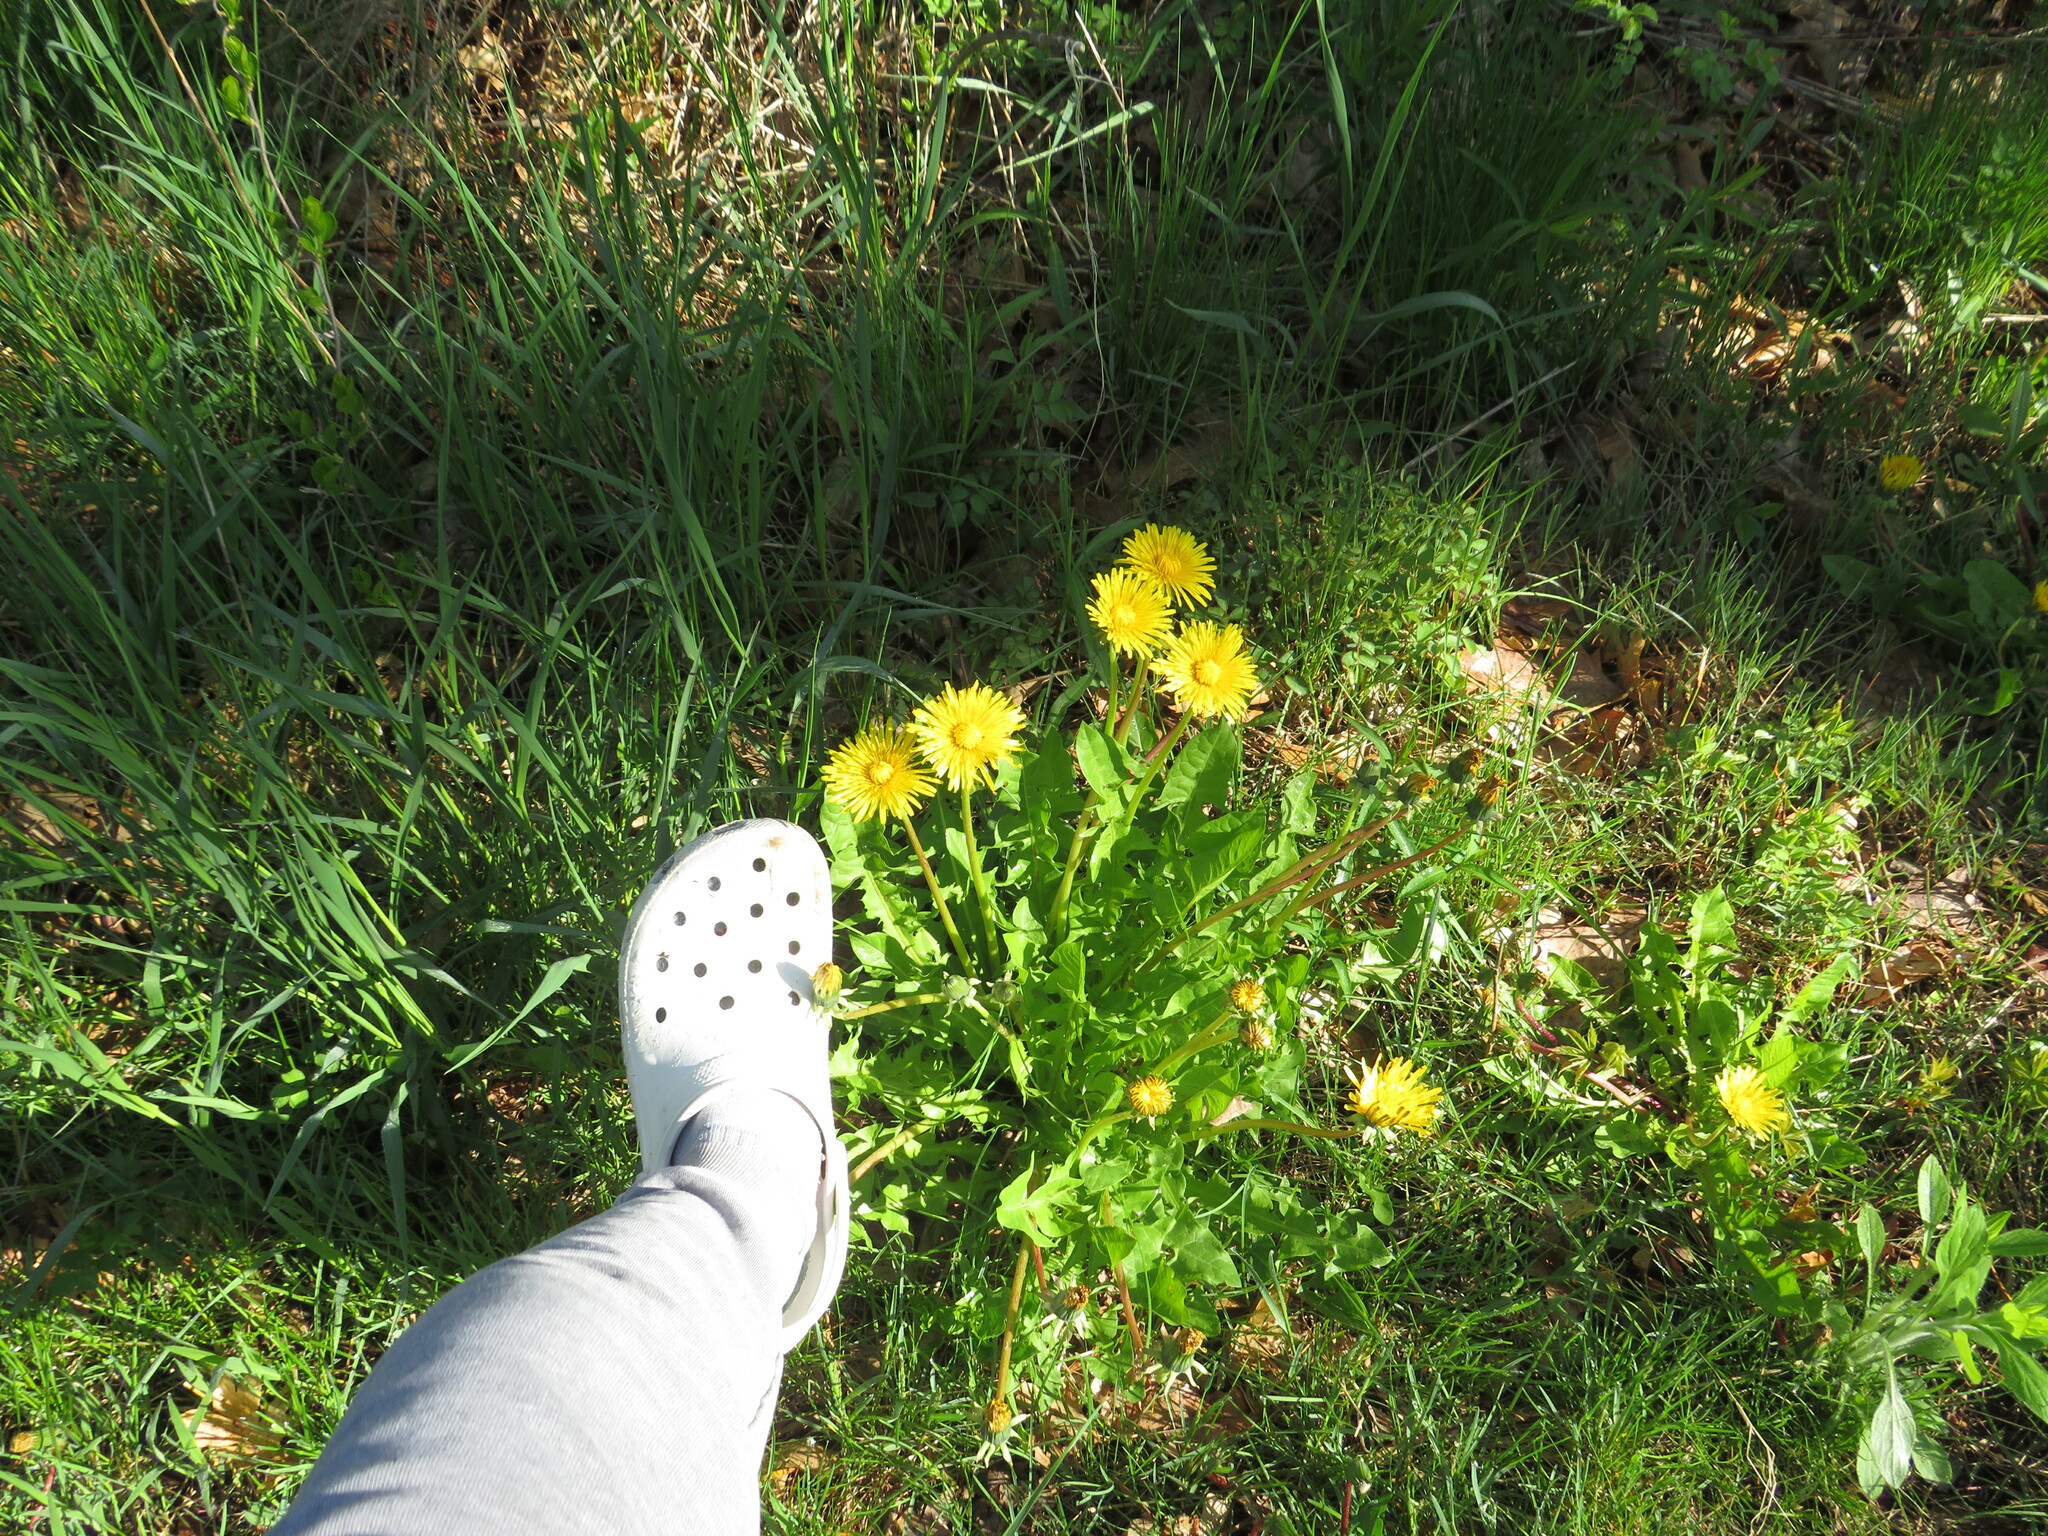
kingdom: Plantae
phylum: Tracheophyta
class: Magnoliopsida
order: Asterales
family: Asteraceae
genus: Taraxacum
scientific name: Taraxacum
